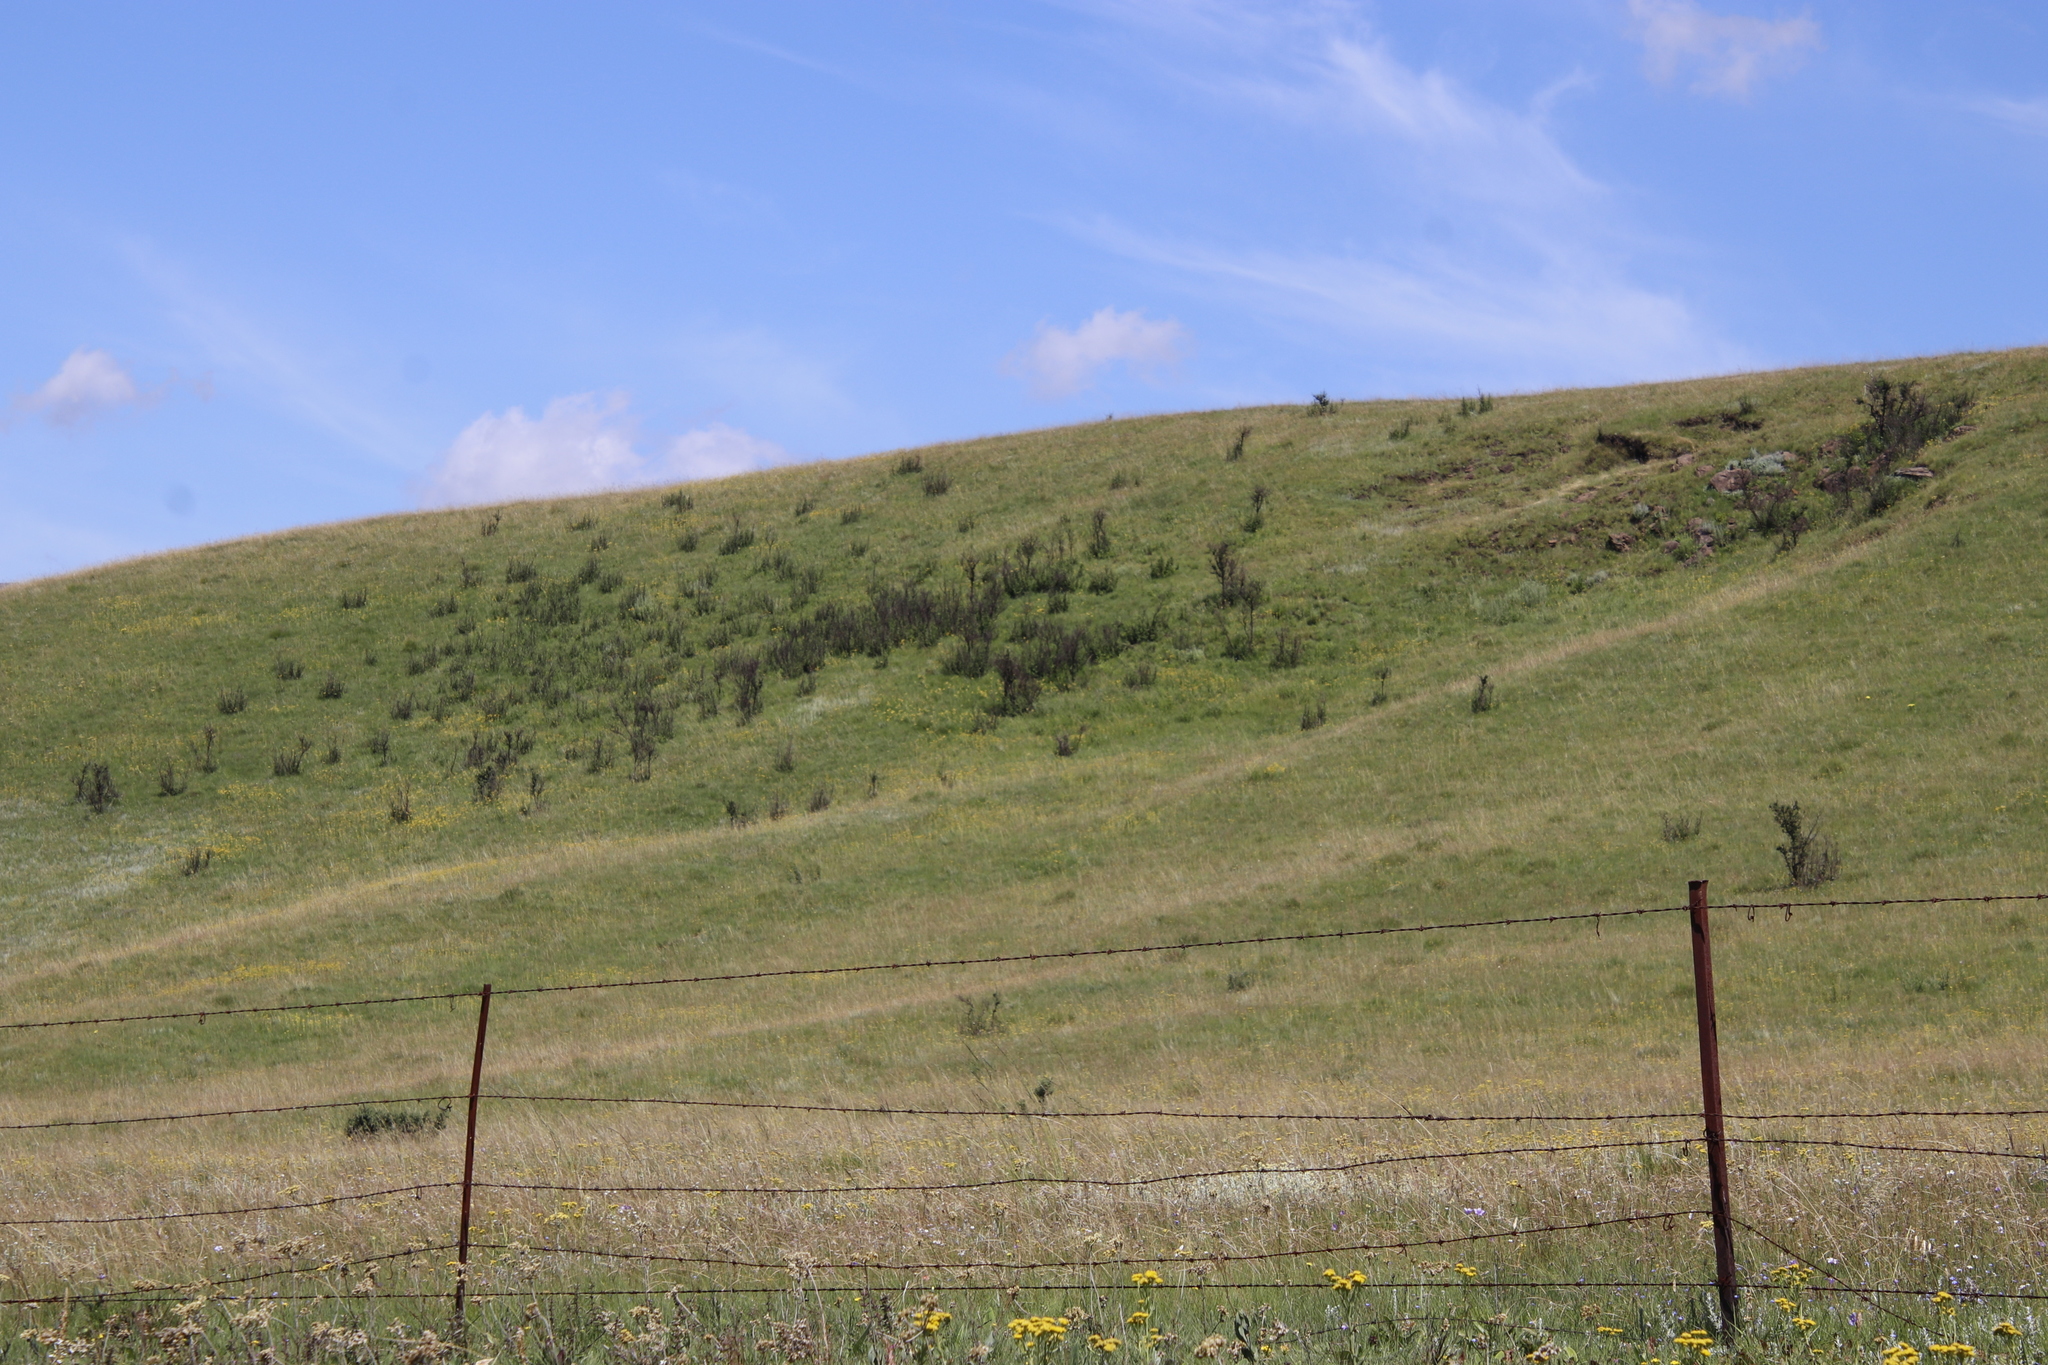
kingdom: Plantae
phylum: Tracheophyta
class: Magnoliopsida
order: Rosales
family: Rosaceae
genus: Leucosidea
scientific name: Leucosidea sericea
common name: Oldwood
